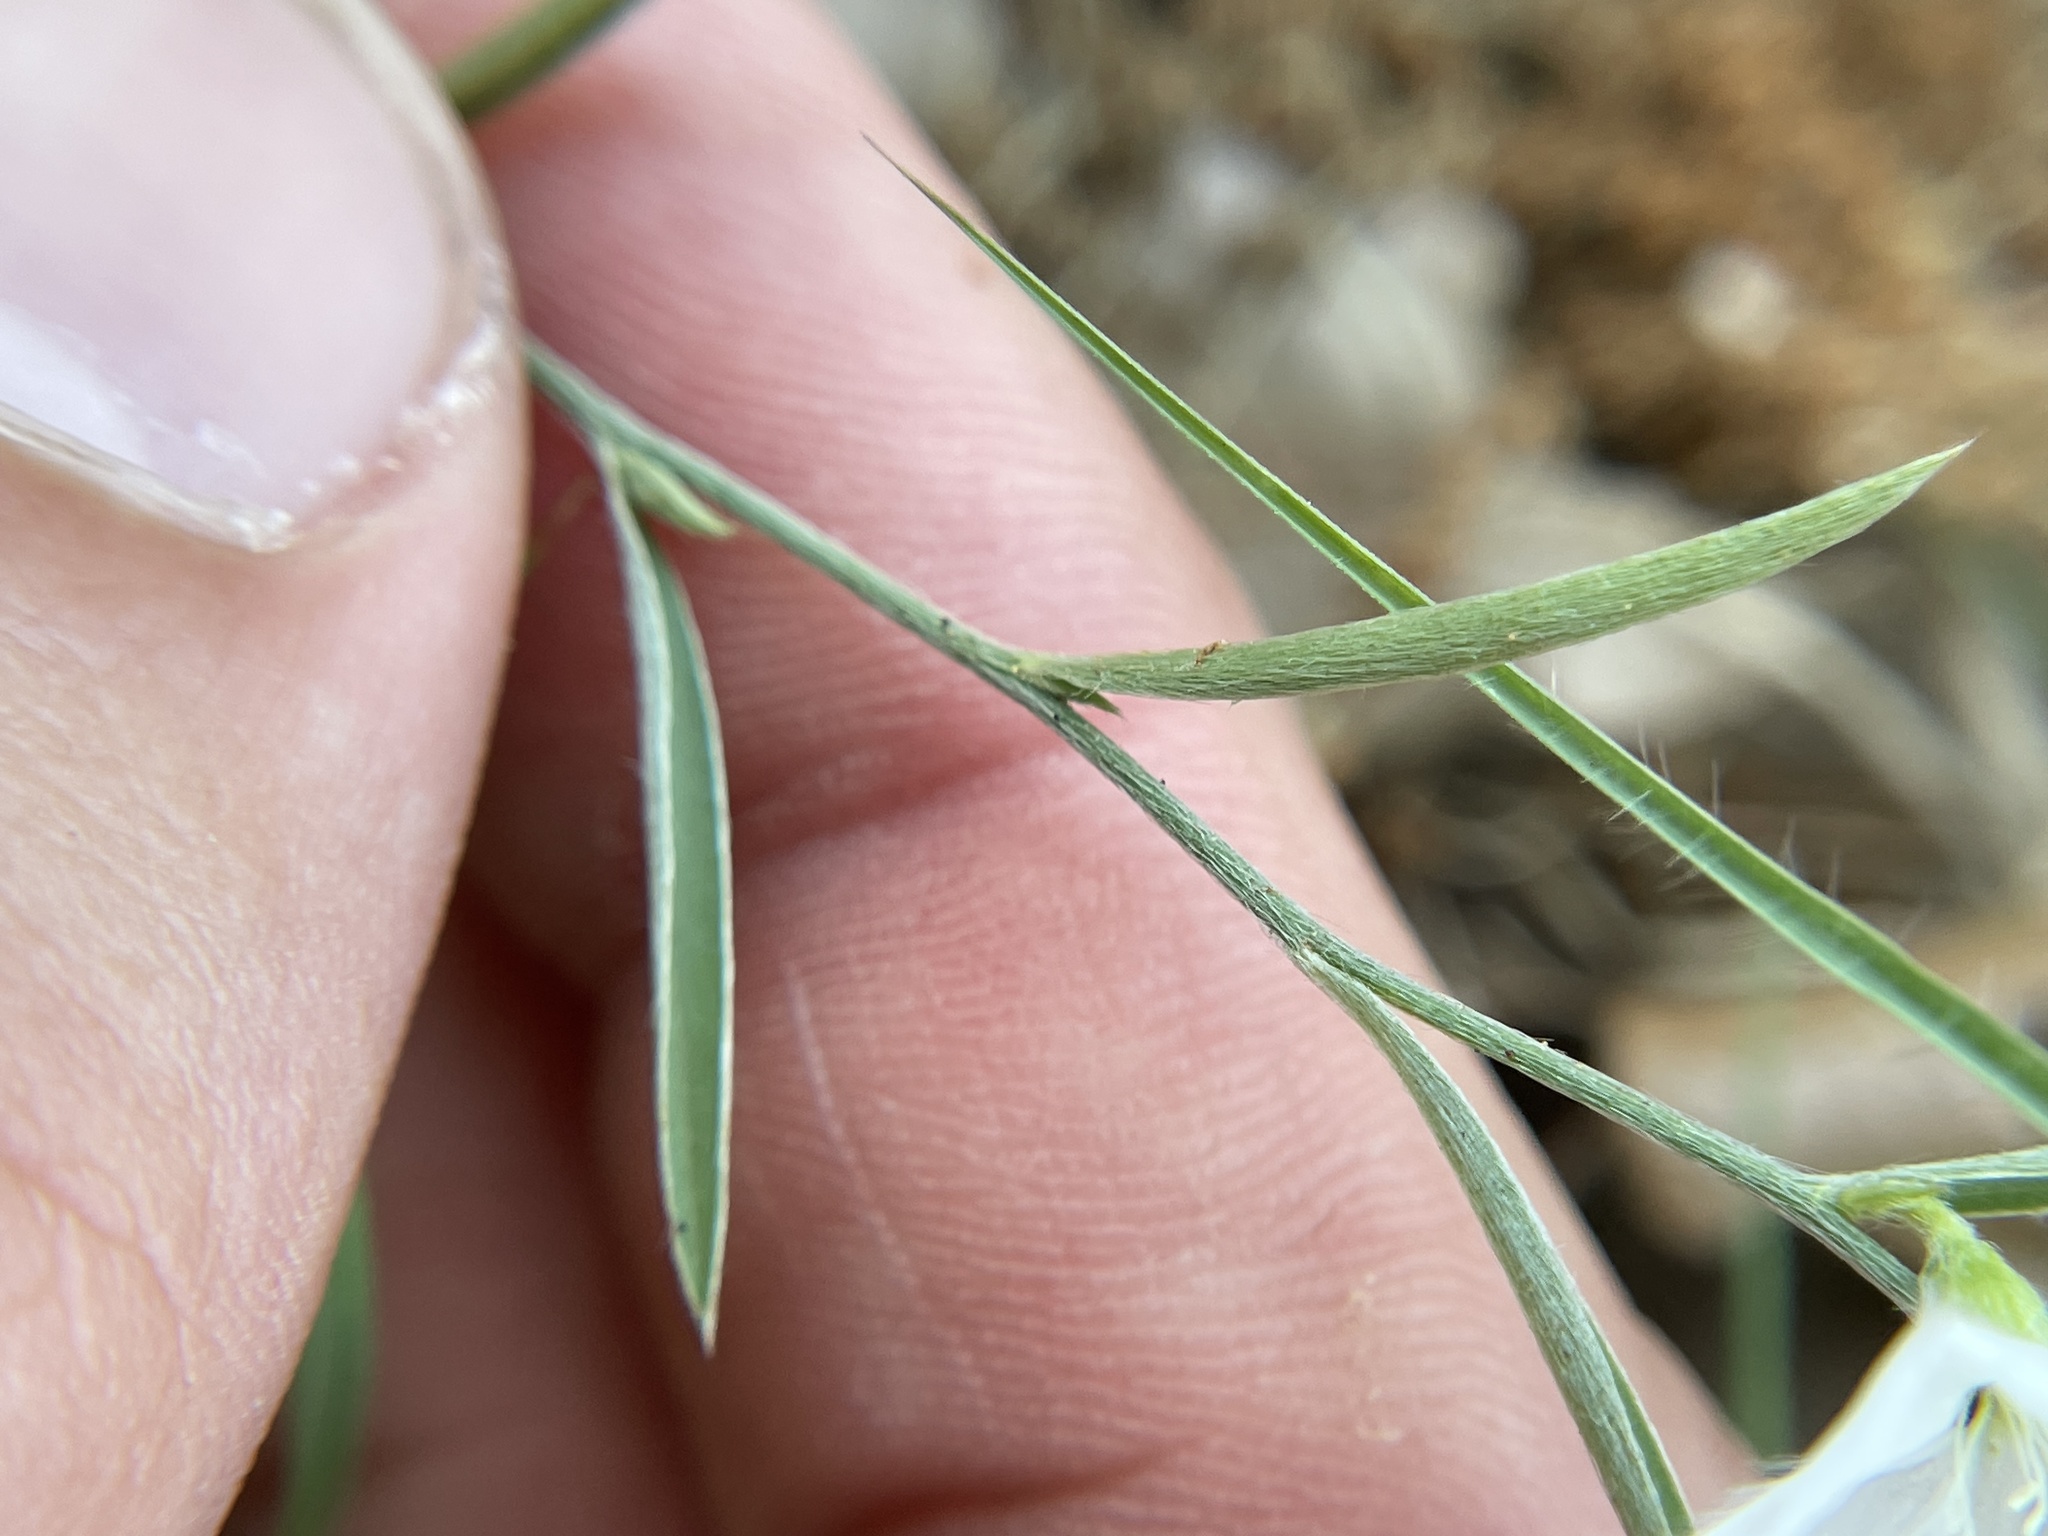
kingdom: Plantae
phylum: Tracheophyta
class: Magnoliopsida
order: Solanales
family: Convolvulaceae
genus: Evolvulus
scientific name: Evolvulus sericeus
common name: Blue dots
